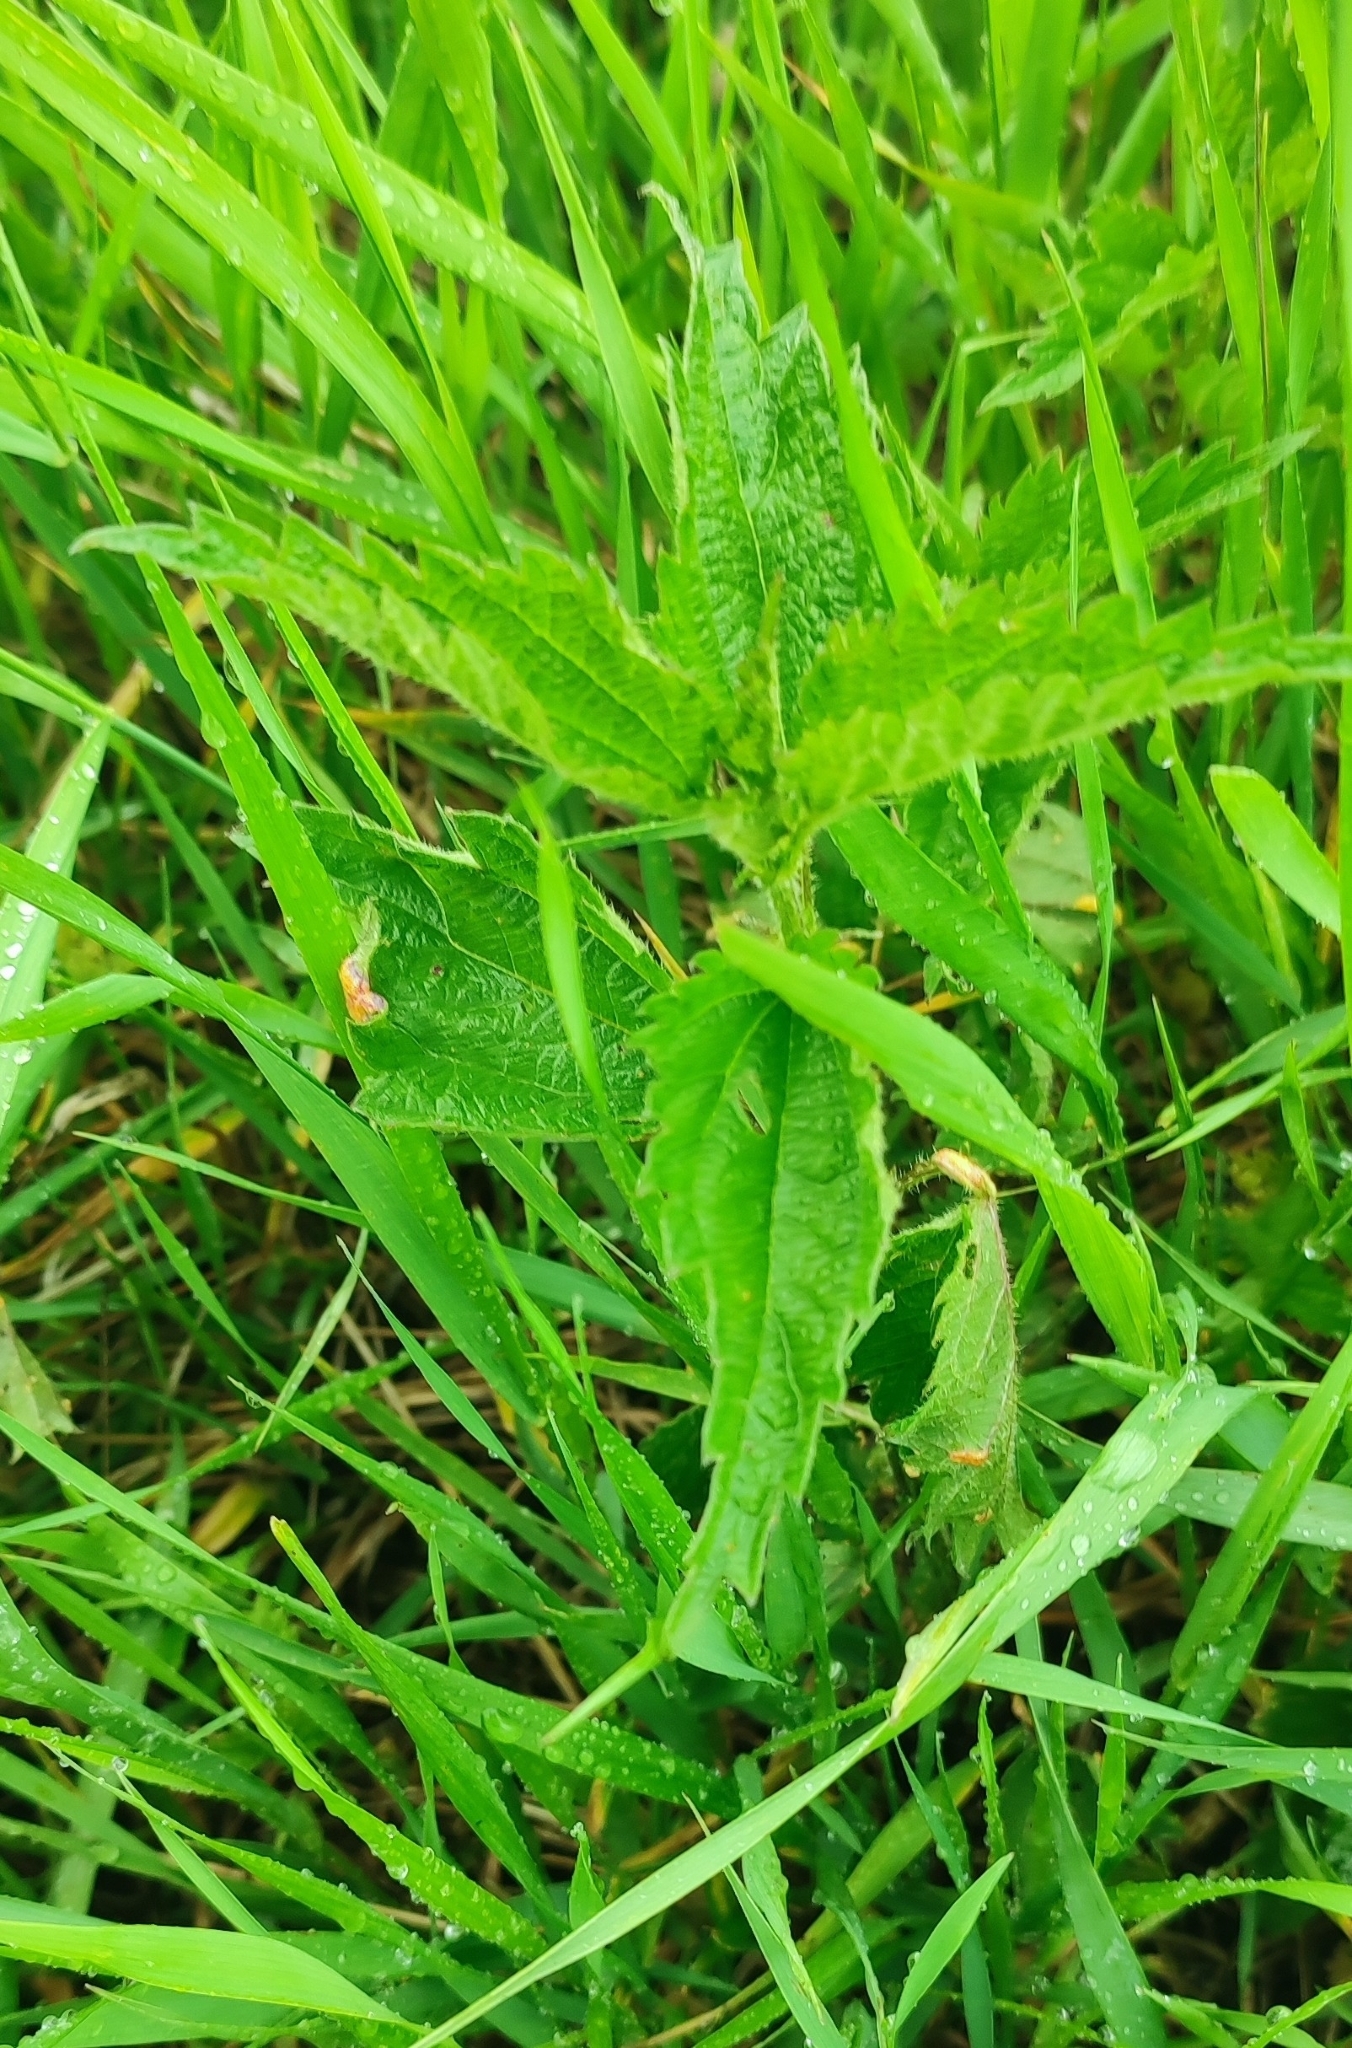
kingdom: Plantae
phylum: Tracheophyta
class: Magnoliopsida
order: Rosales
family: Urticaceae
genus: Urtica
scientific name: Urtica dioica
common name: Common nettle
